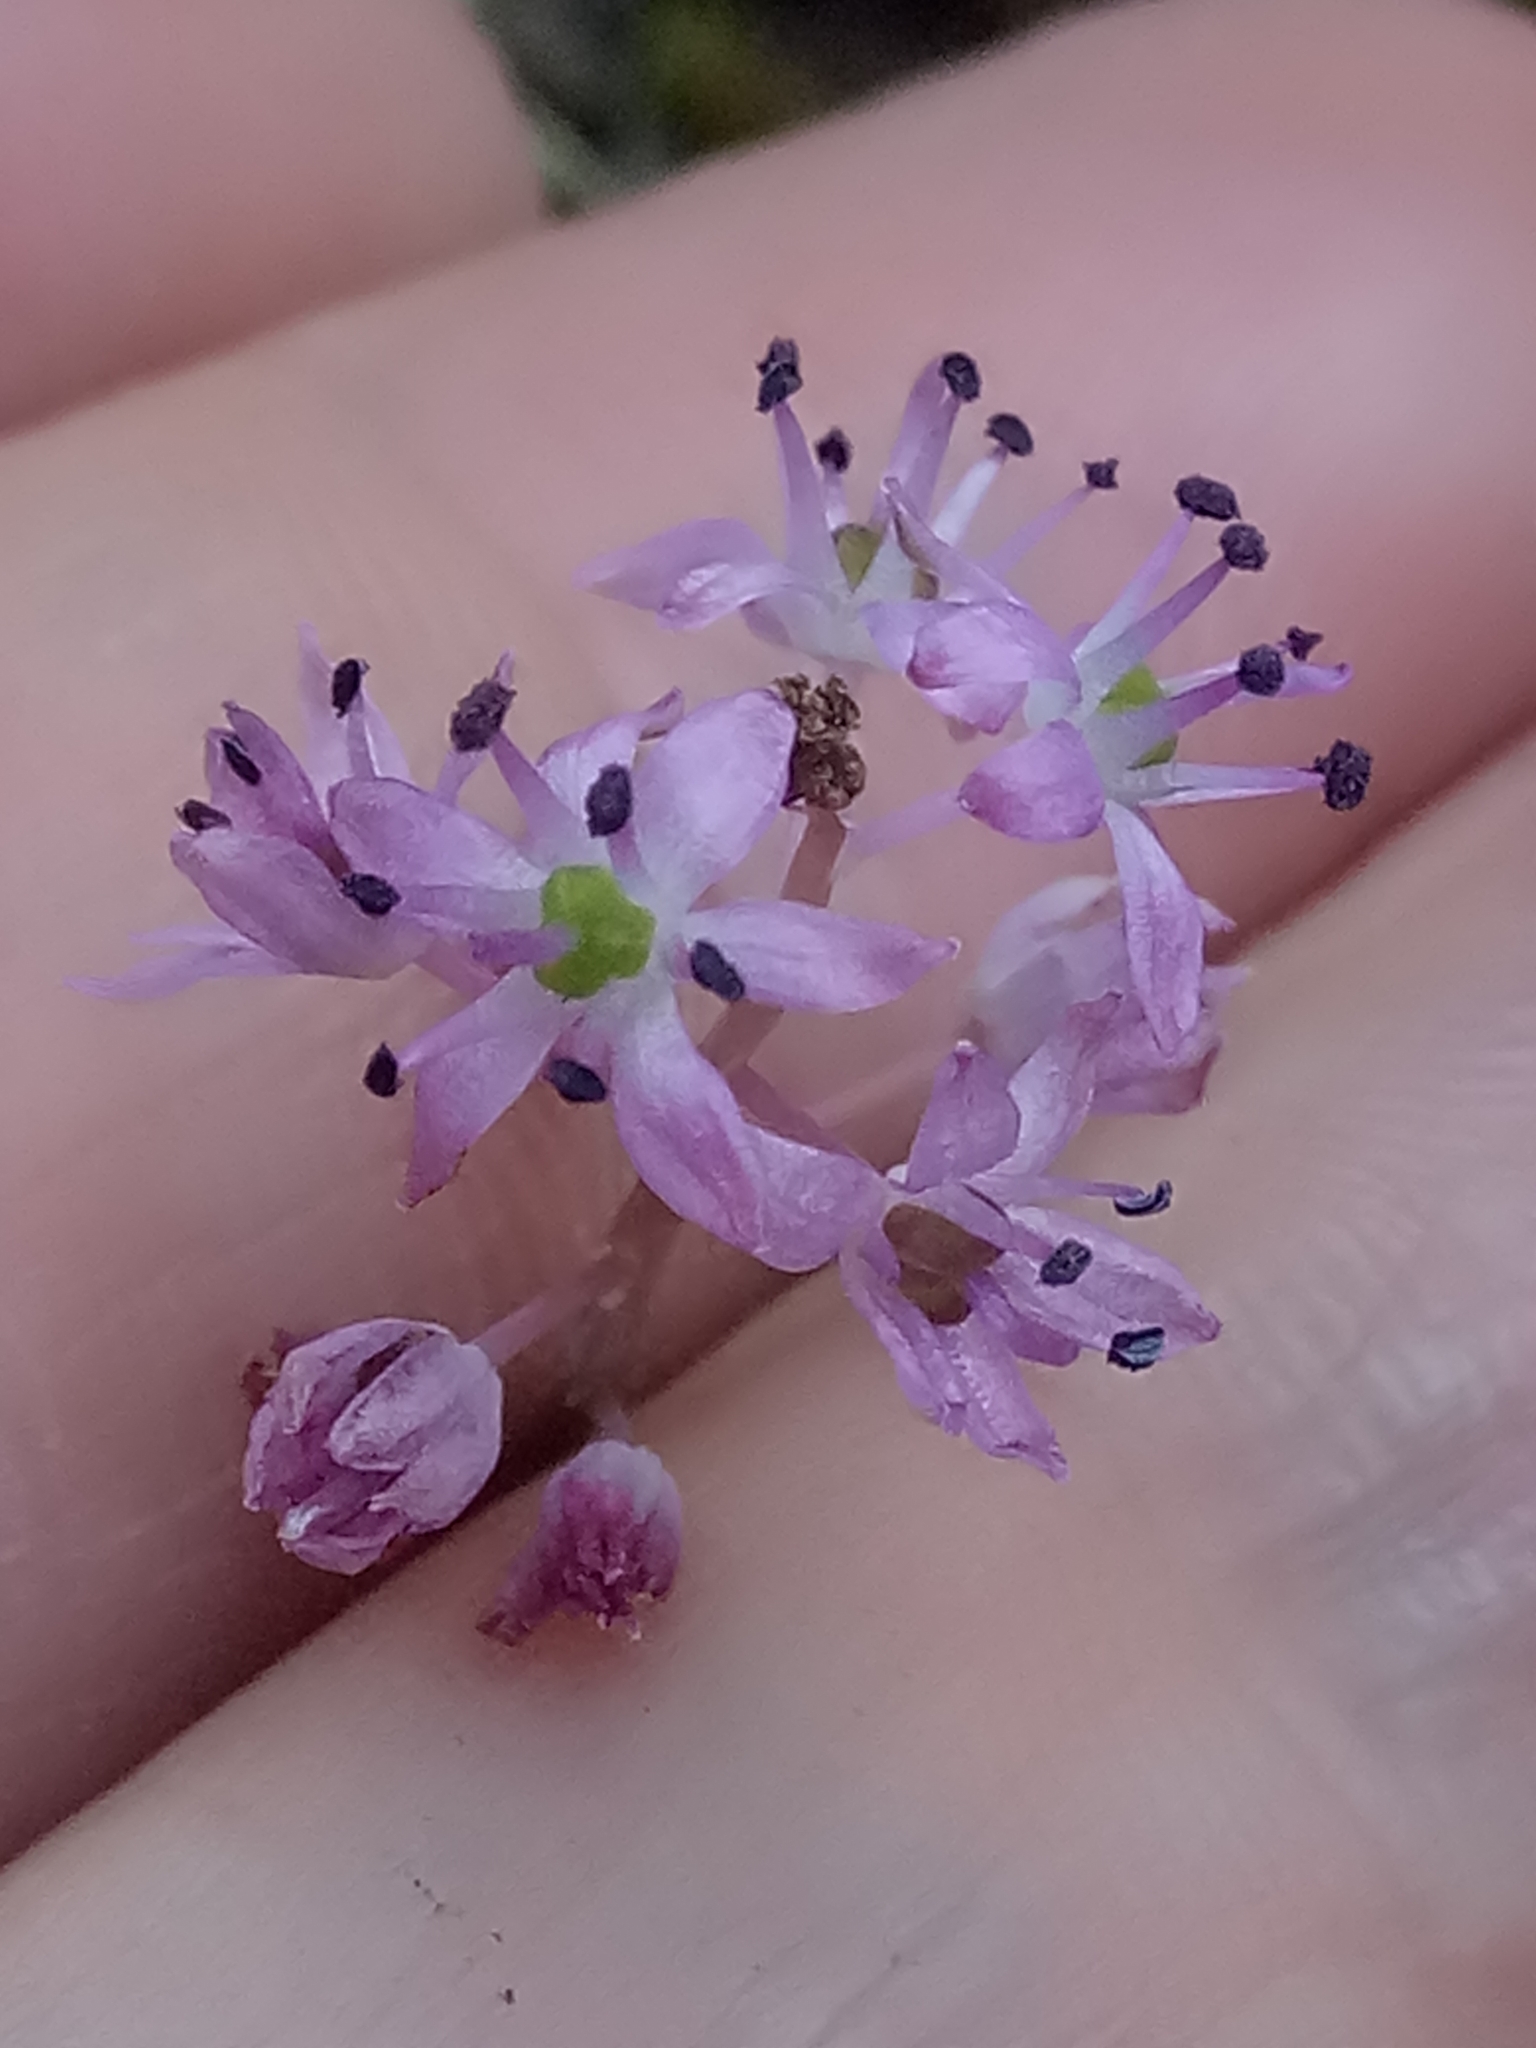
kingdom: Plantae
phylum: Tracheophyta
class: Liliopsida
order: Asparagales
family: Asparagaceae
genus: Barnardia
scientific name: Barnardia numidica
